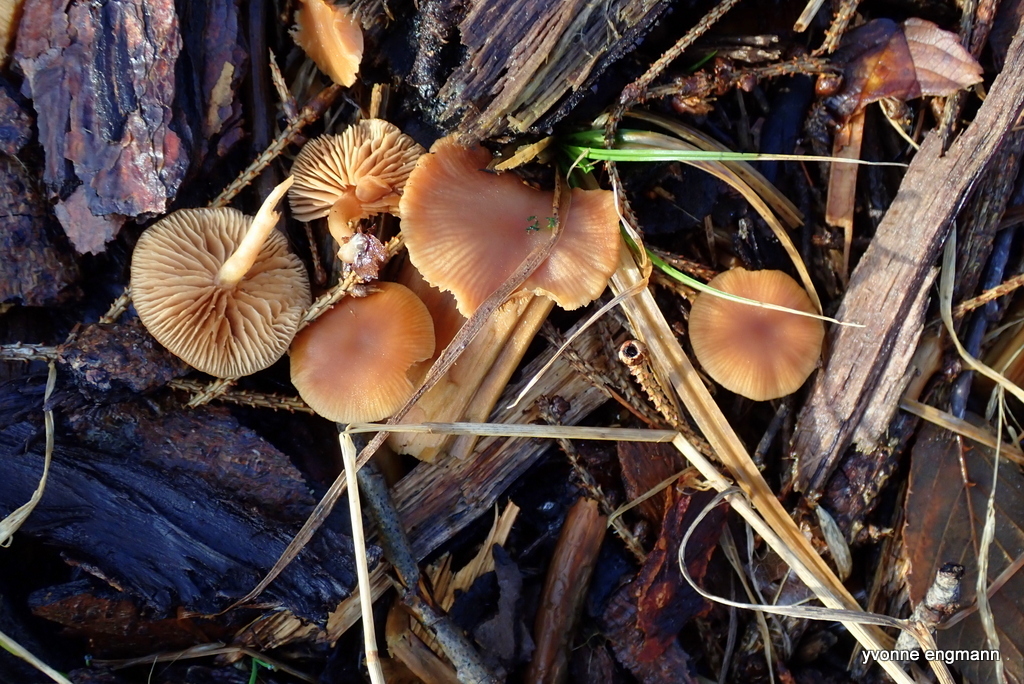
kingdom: Fungi
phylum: Basidiomycota
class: Agaricomycetes
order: Agaricales
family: Tubariaceae
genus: Tubaria
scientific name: Tubaria furfuracea
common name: Scurfy twiglet
